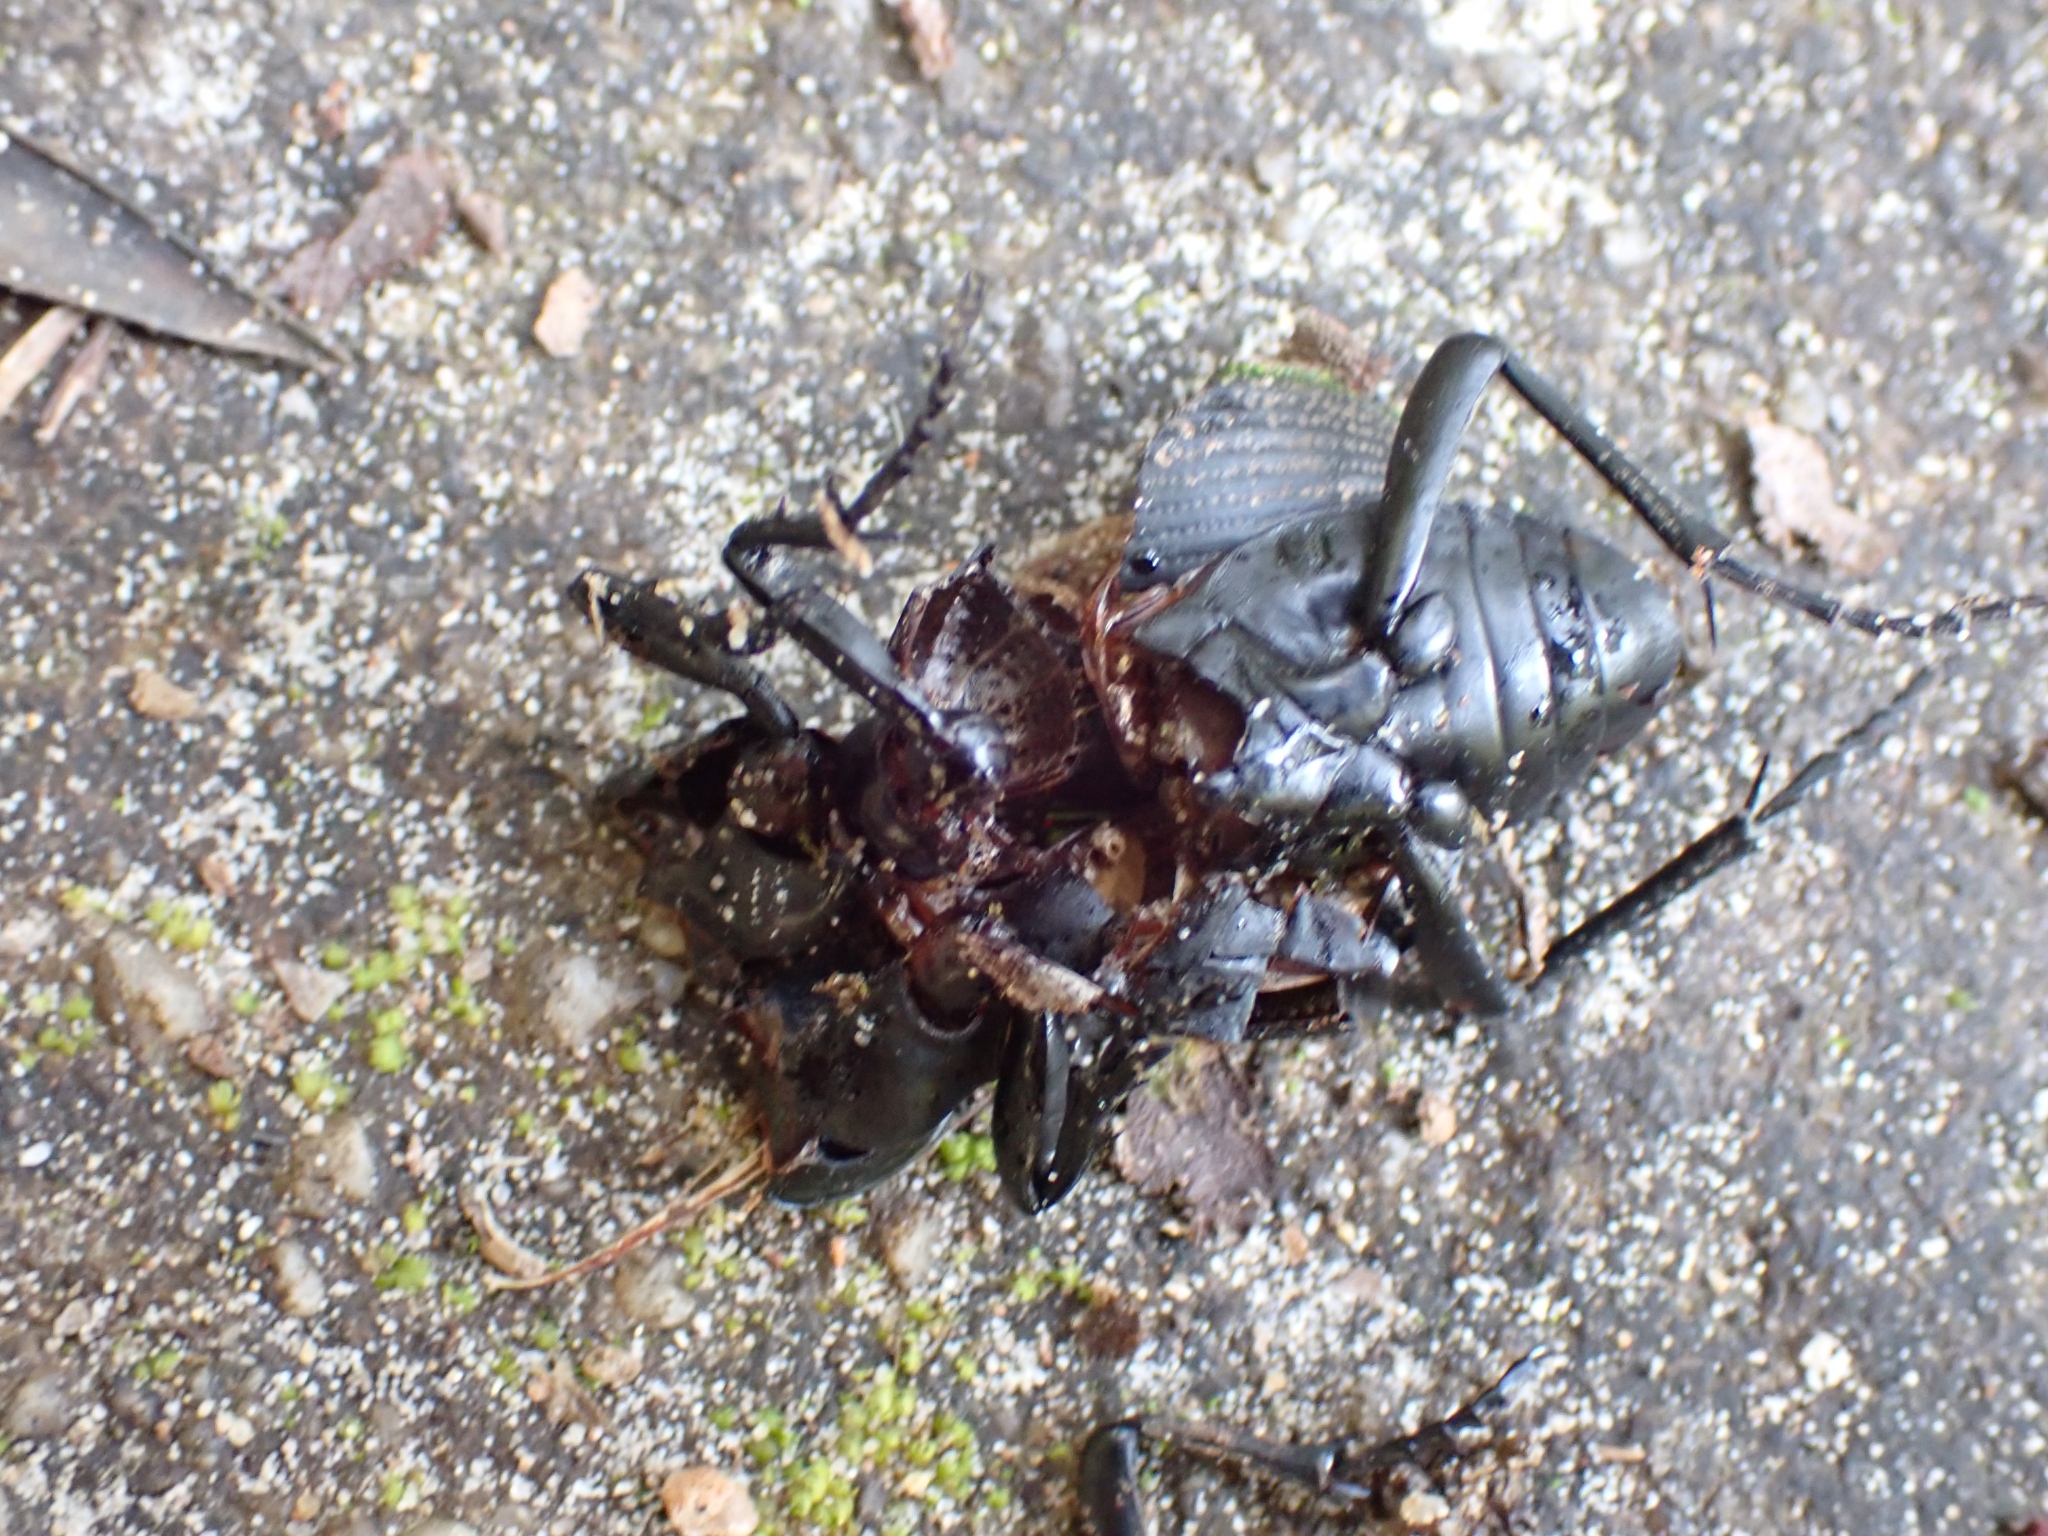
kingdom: Animalia
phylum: Arthropoda
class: Insecta
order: Coleoptera
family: Carabidae
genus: Mouhotia
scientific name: Mouhotia batesi
